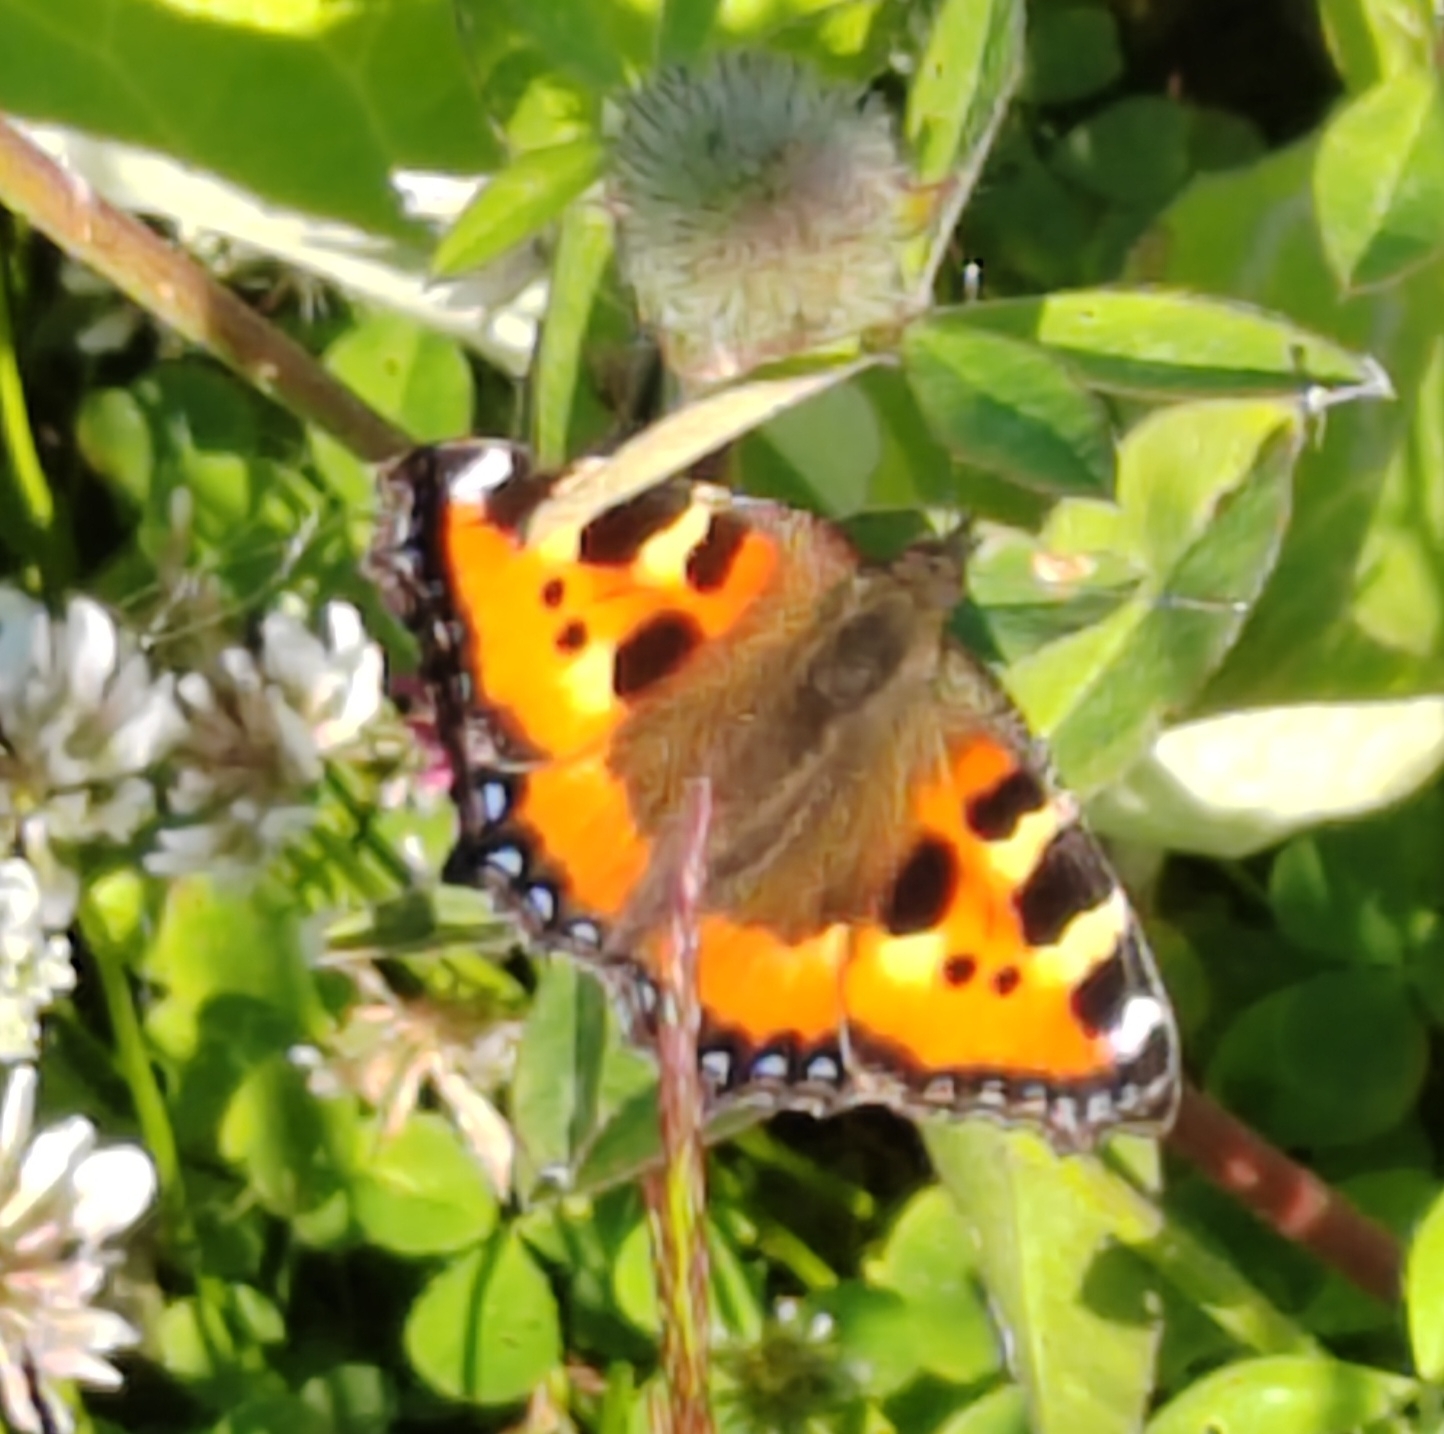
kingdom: Animalia
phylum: Arthropoda
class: Insecta
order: Lepidoptera
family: Nymphalidae
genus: Aglais
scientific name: Aglais urticae
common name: Small tortoiseshell
